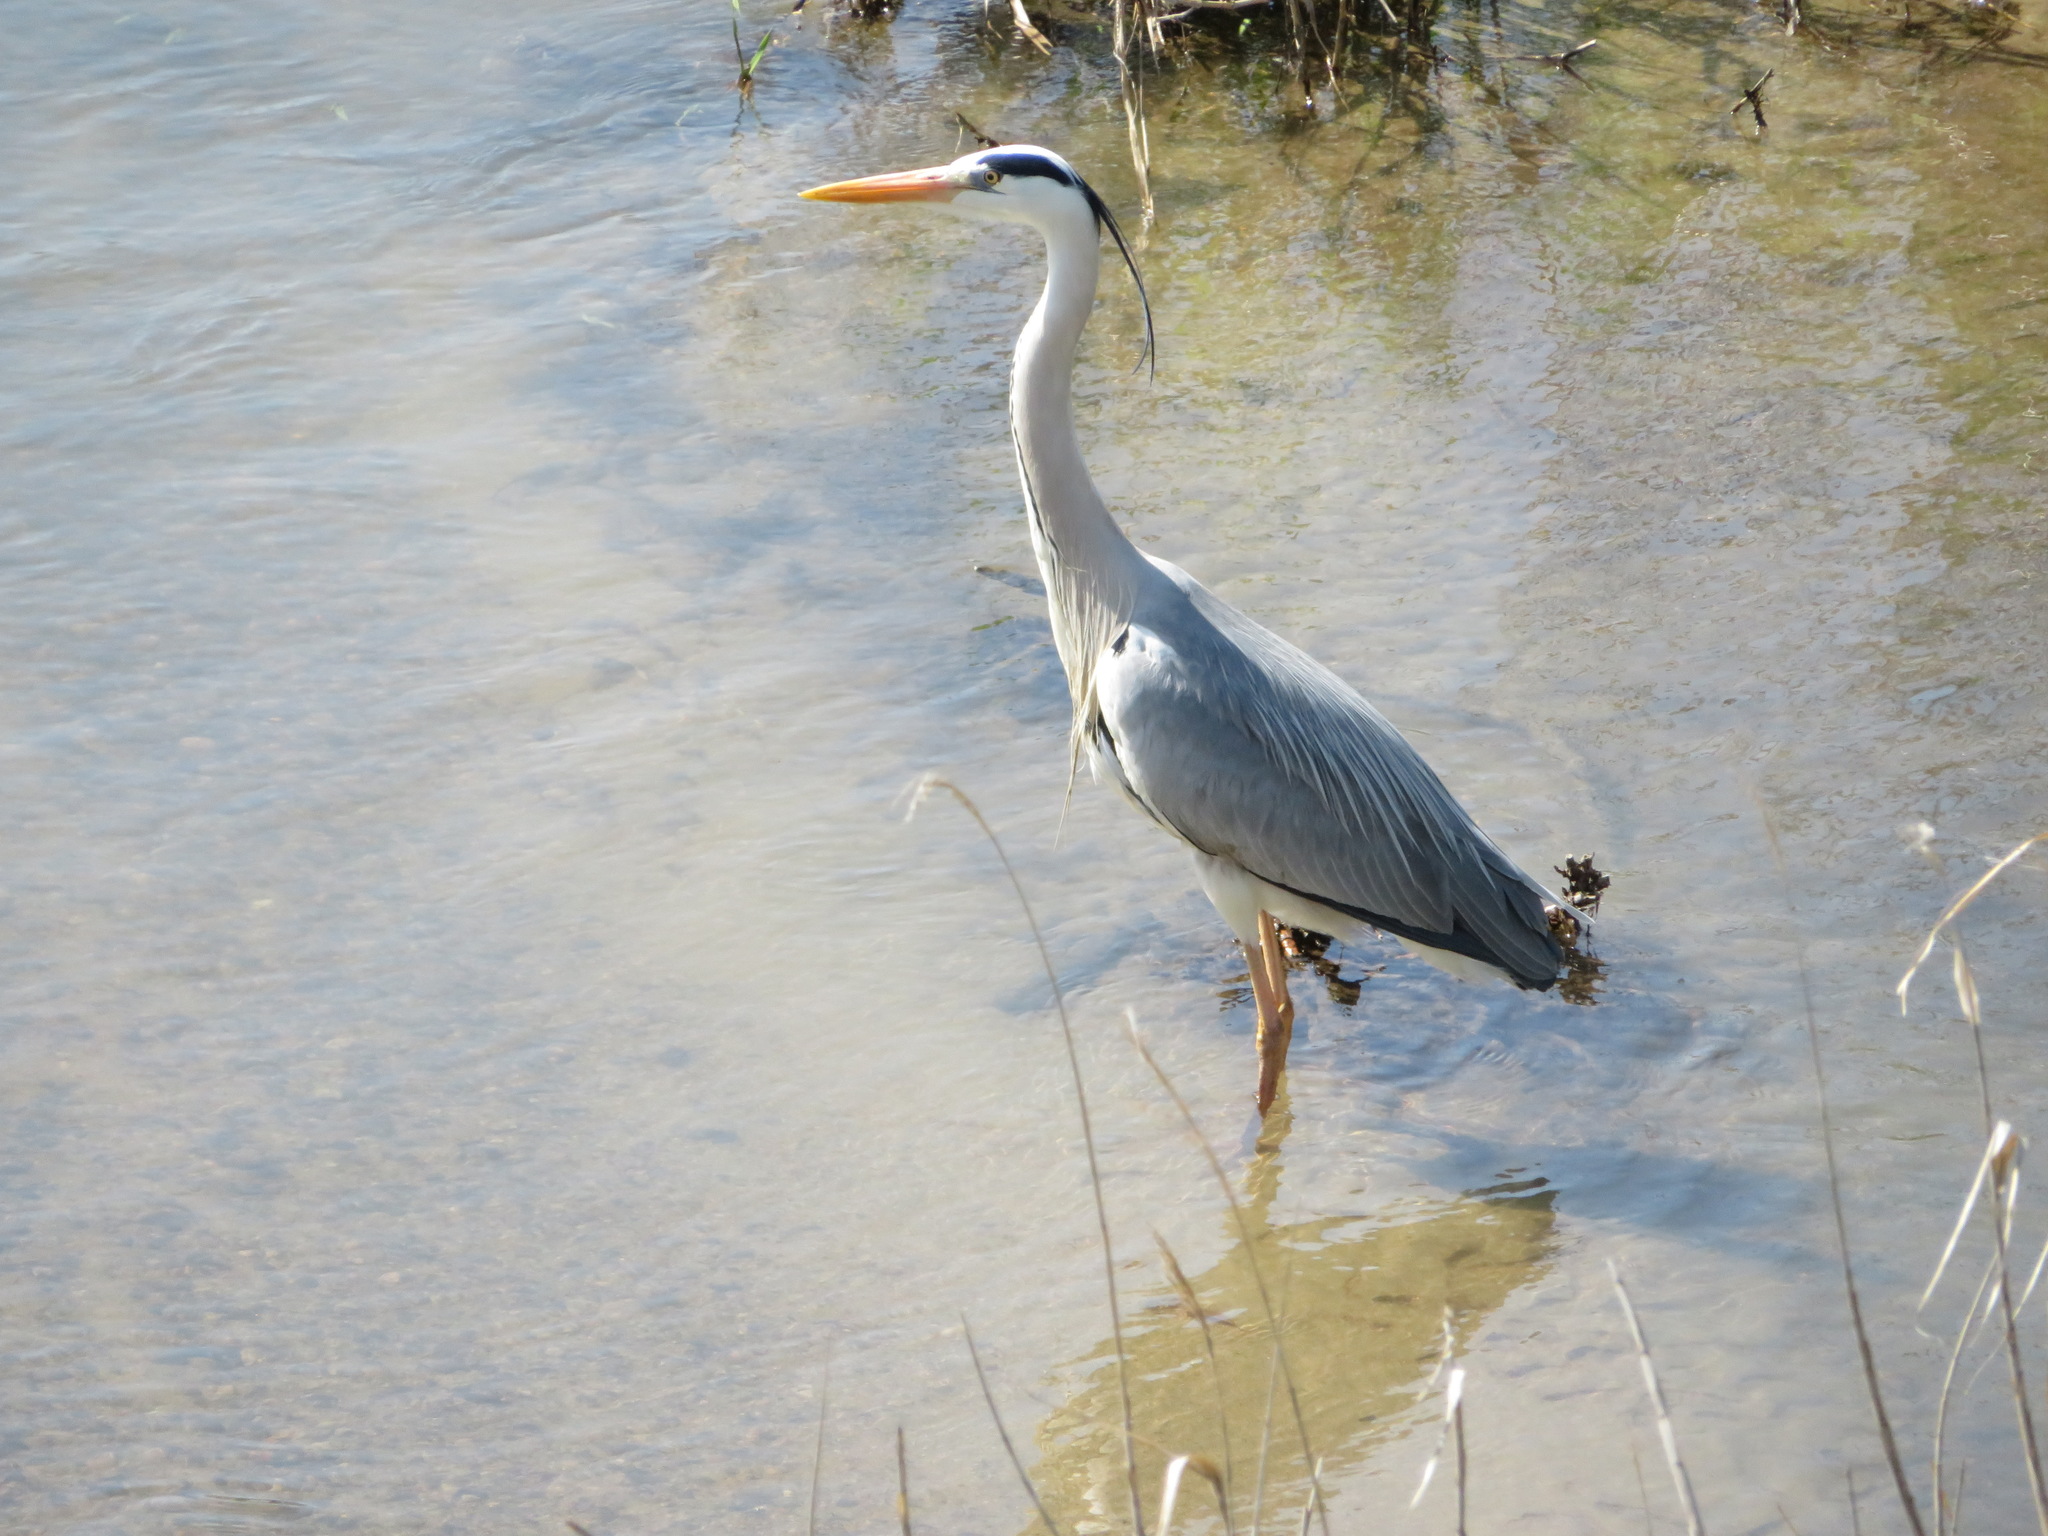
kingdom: Animalia
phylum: Chordata
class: Aves
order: Pelecaniformes
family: Ardeidae
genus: Ardea
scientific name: Ardea cinerea
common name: Grey heron
